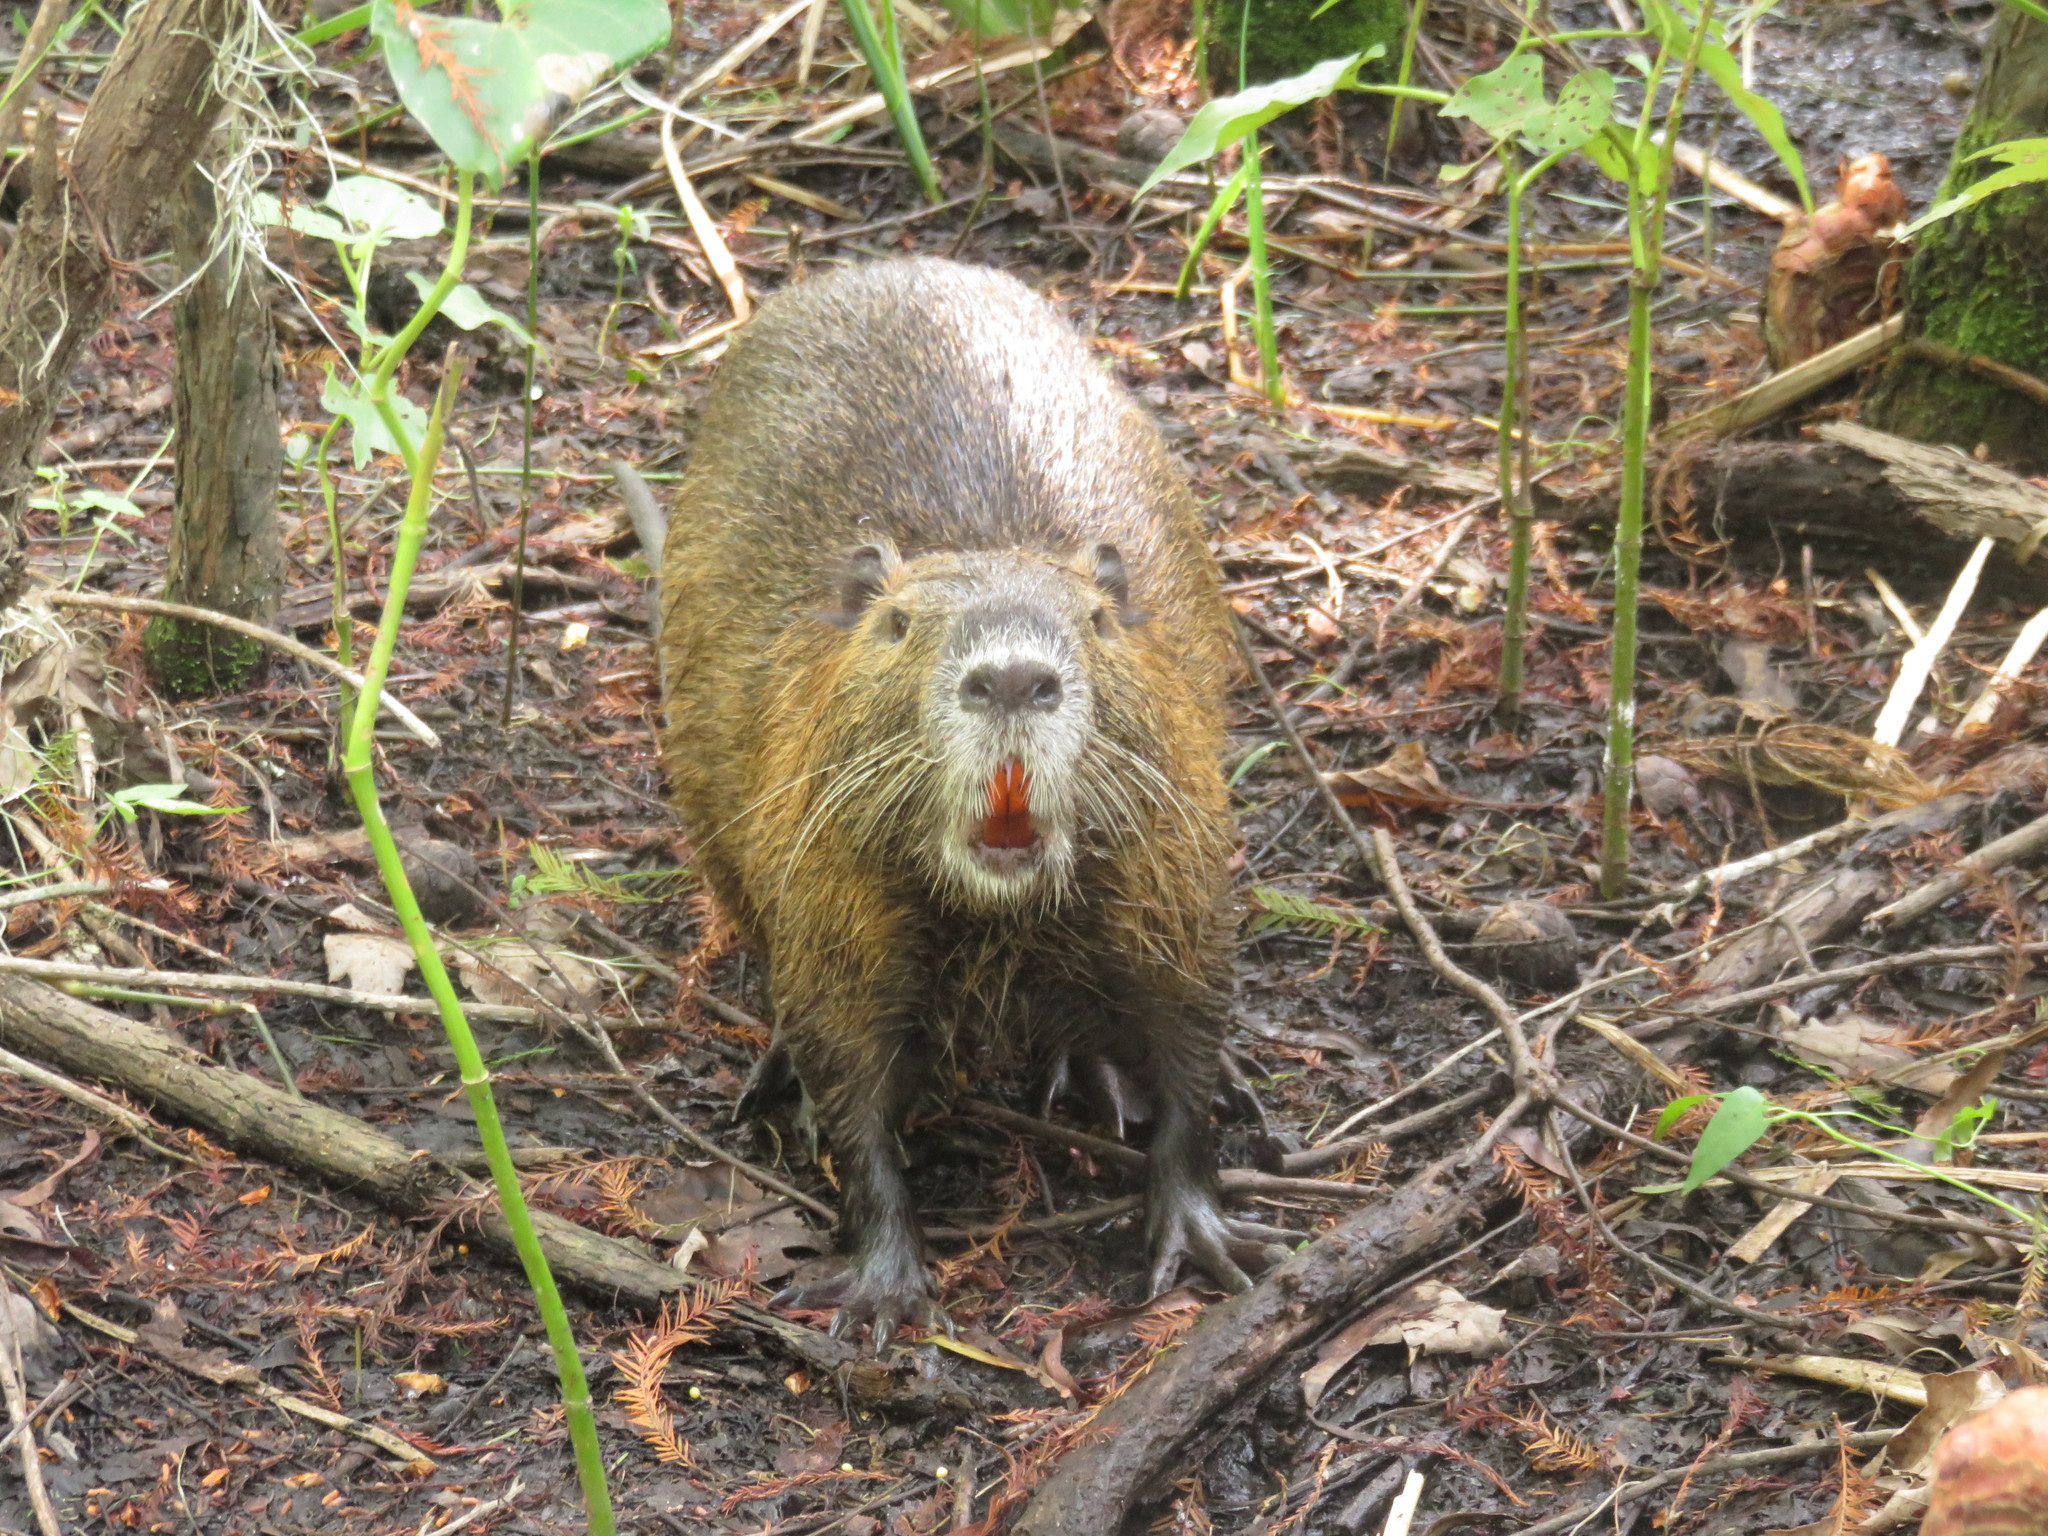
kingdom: Animalia
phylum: Chordata
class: Mammalia
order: Rodentia
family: Myocastoridae
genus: Myocastor
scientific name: Myocastor coypus
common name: Coypu
